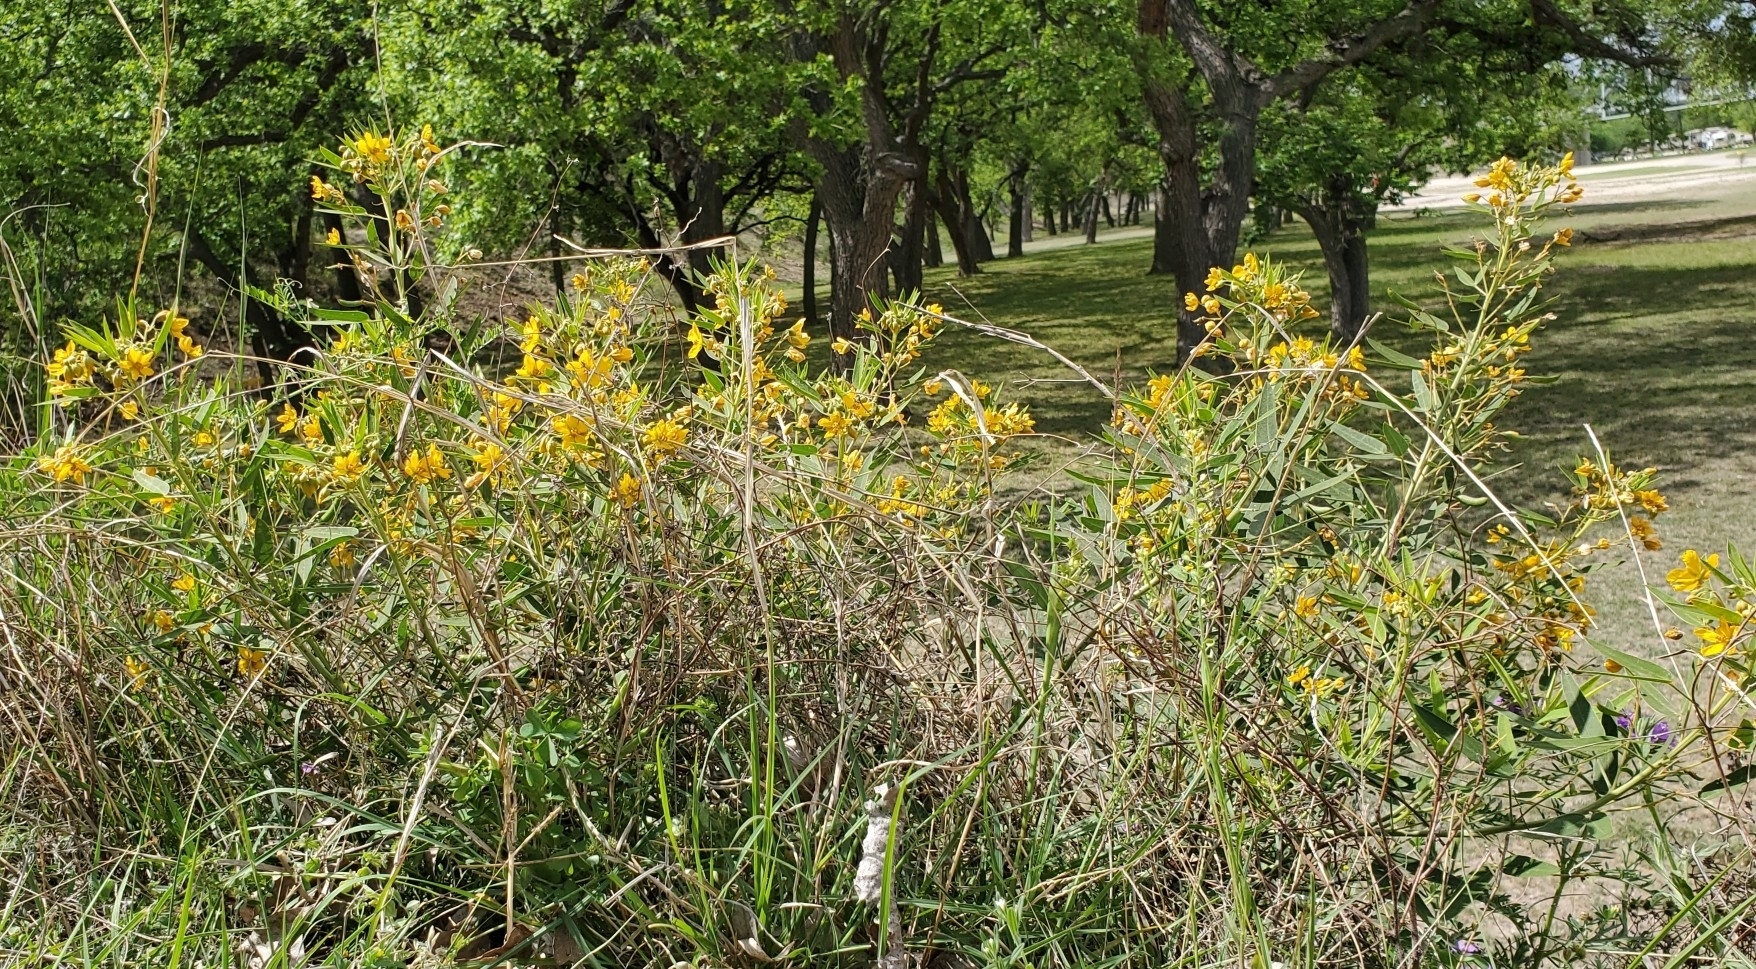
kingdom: Plantae
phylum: Tracheophyta
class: Magnoliopsida
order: Fabales
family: Fabaceae
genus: Senna
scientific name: Senna roemeriana
